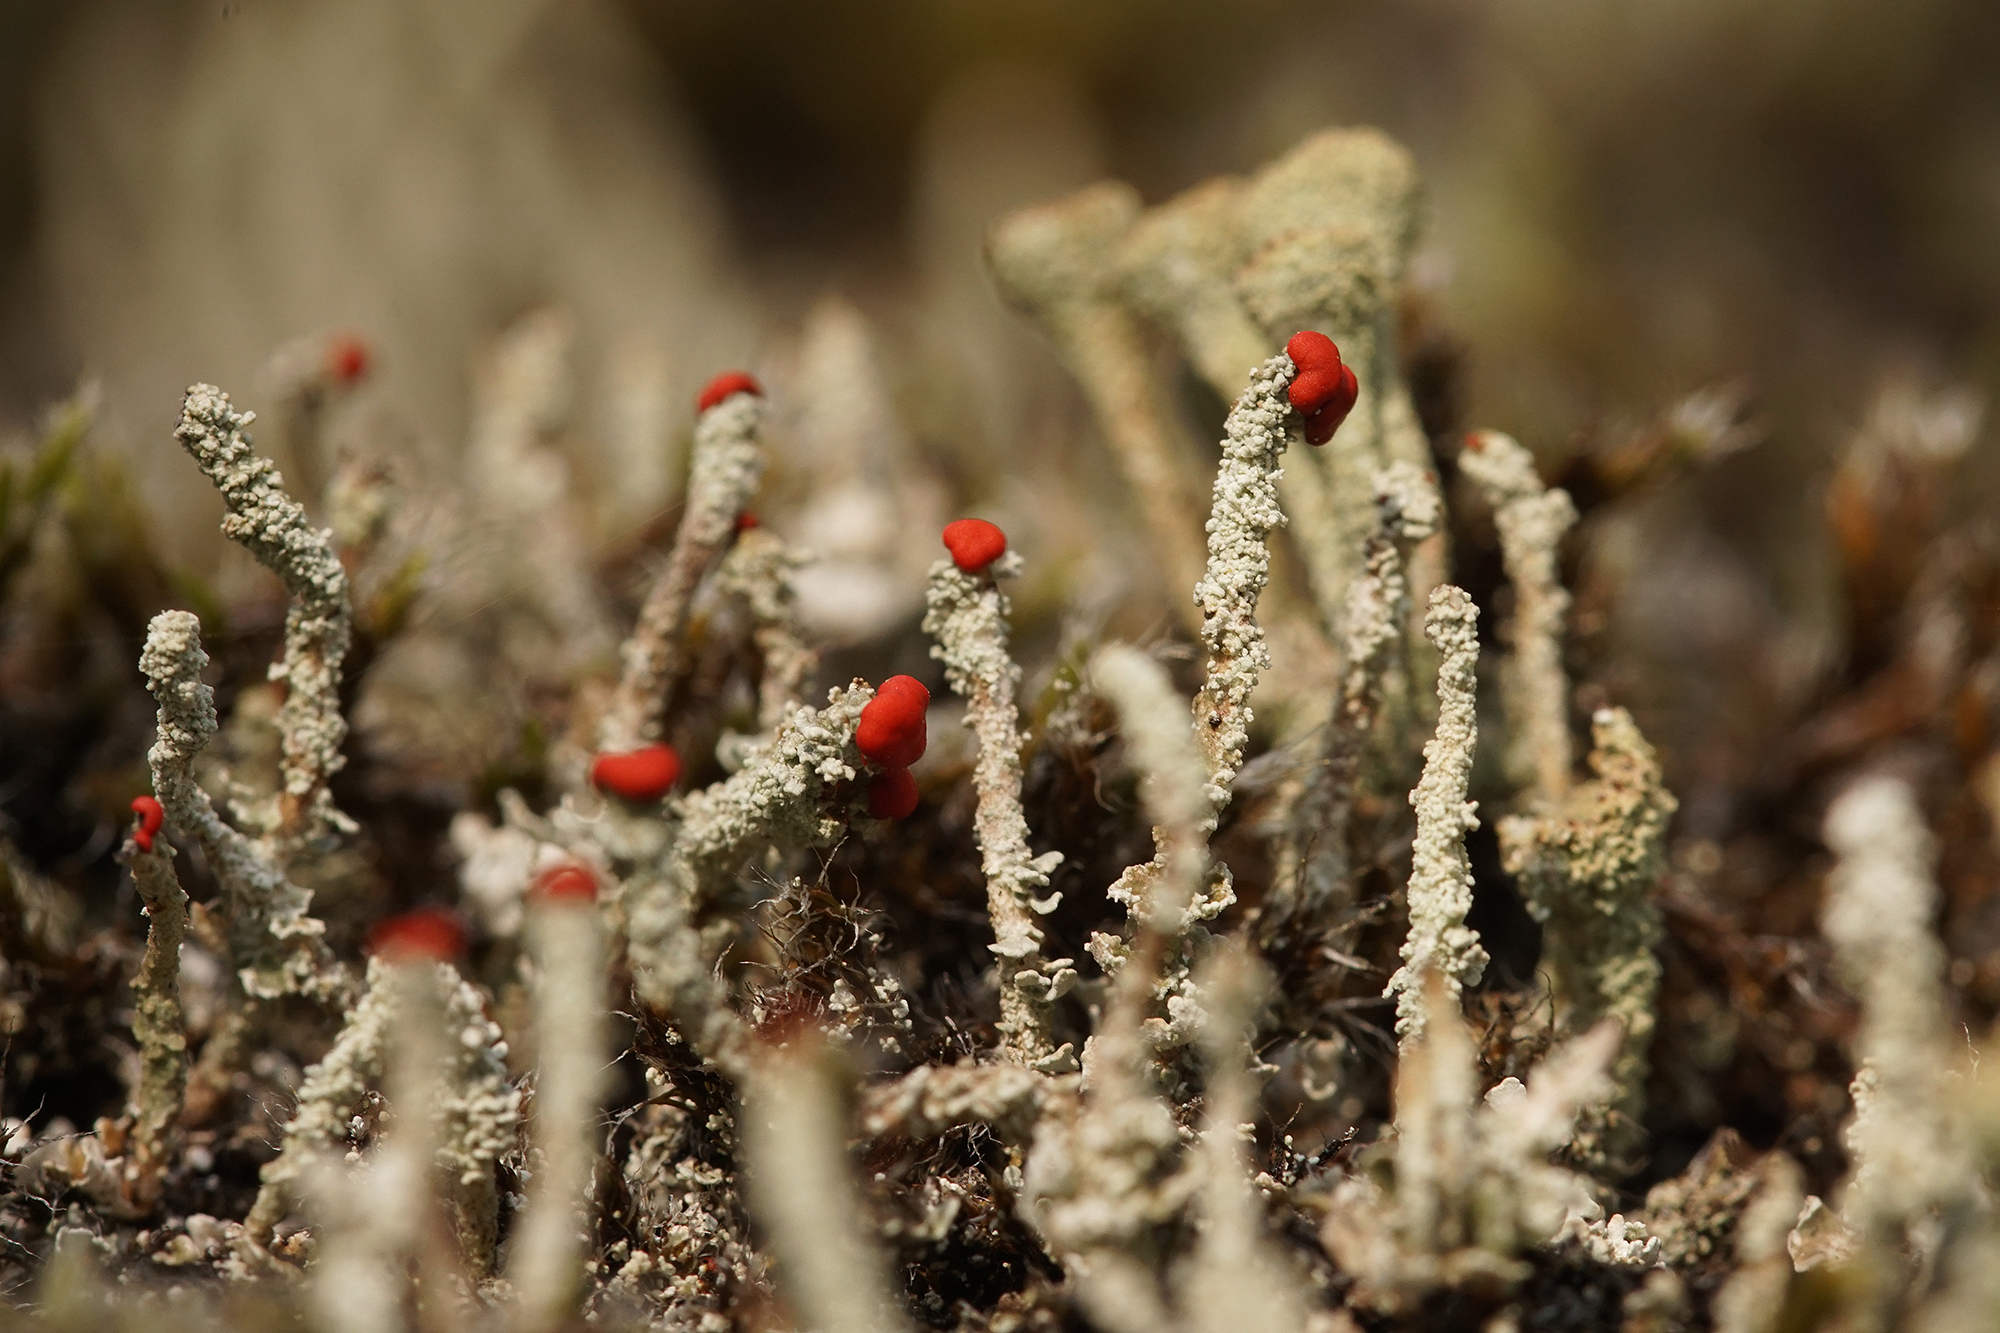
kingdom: Fungi
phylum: Ascomycota
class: Lecanoromycetes
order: Lecanorales
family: Cladoniaceae
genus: Cladonia
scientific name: Cladonia floerkeana
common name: Gritty british soldiers lichen
